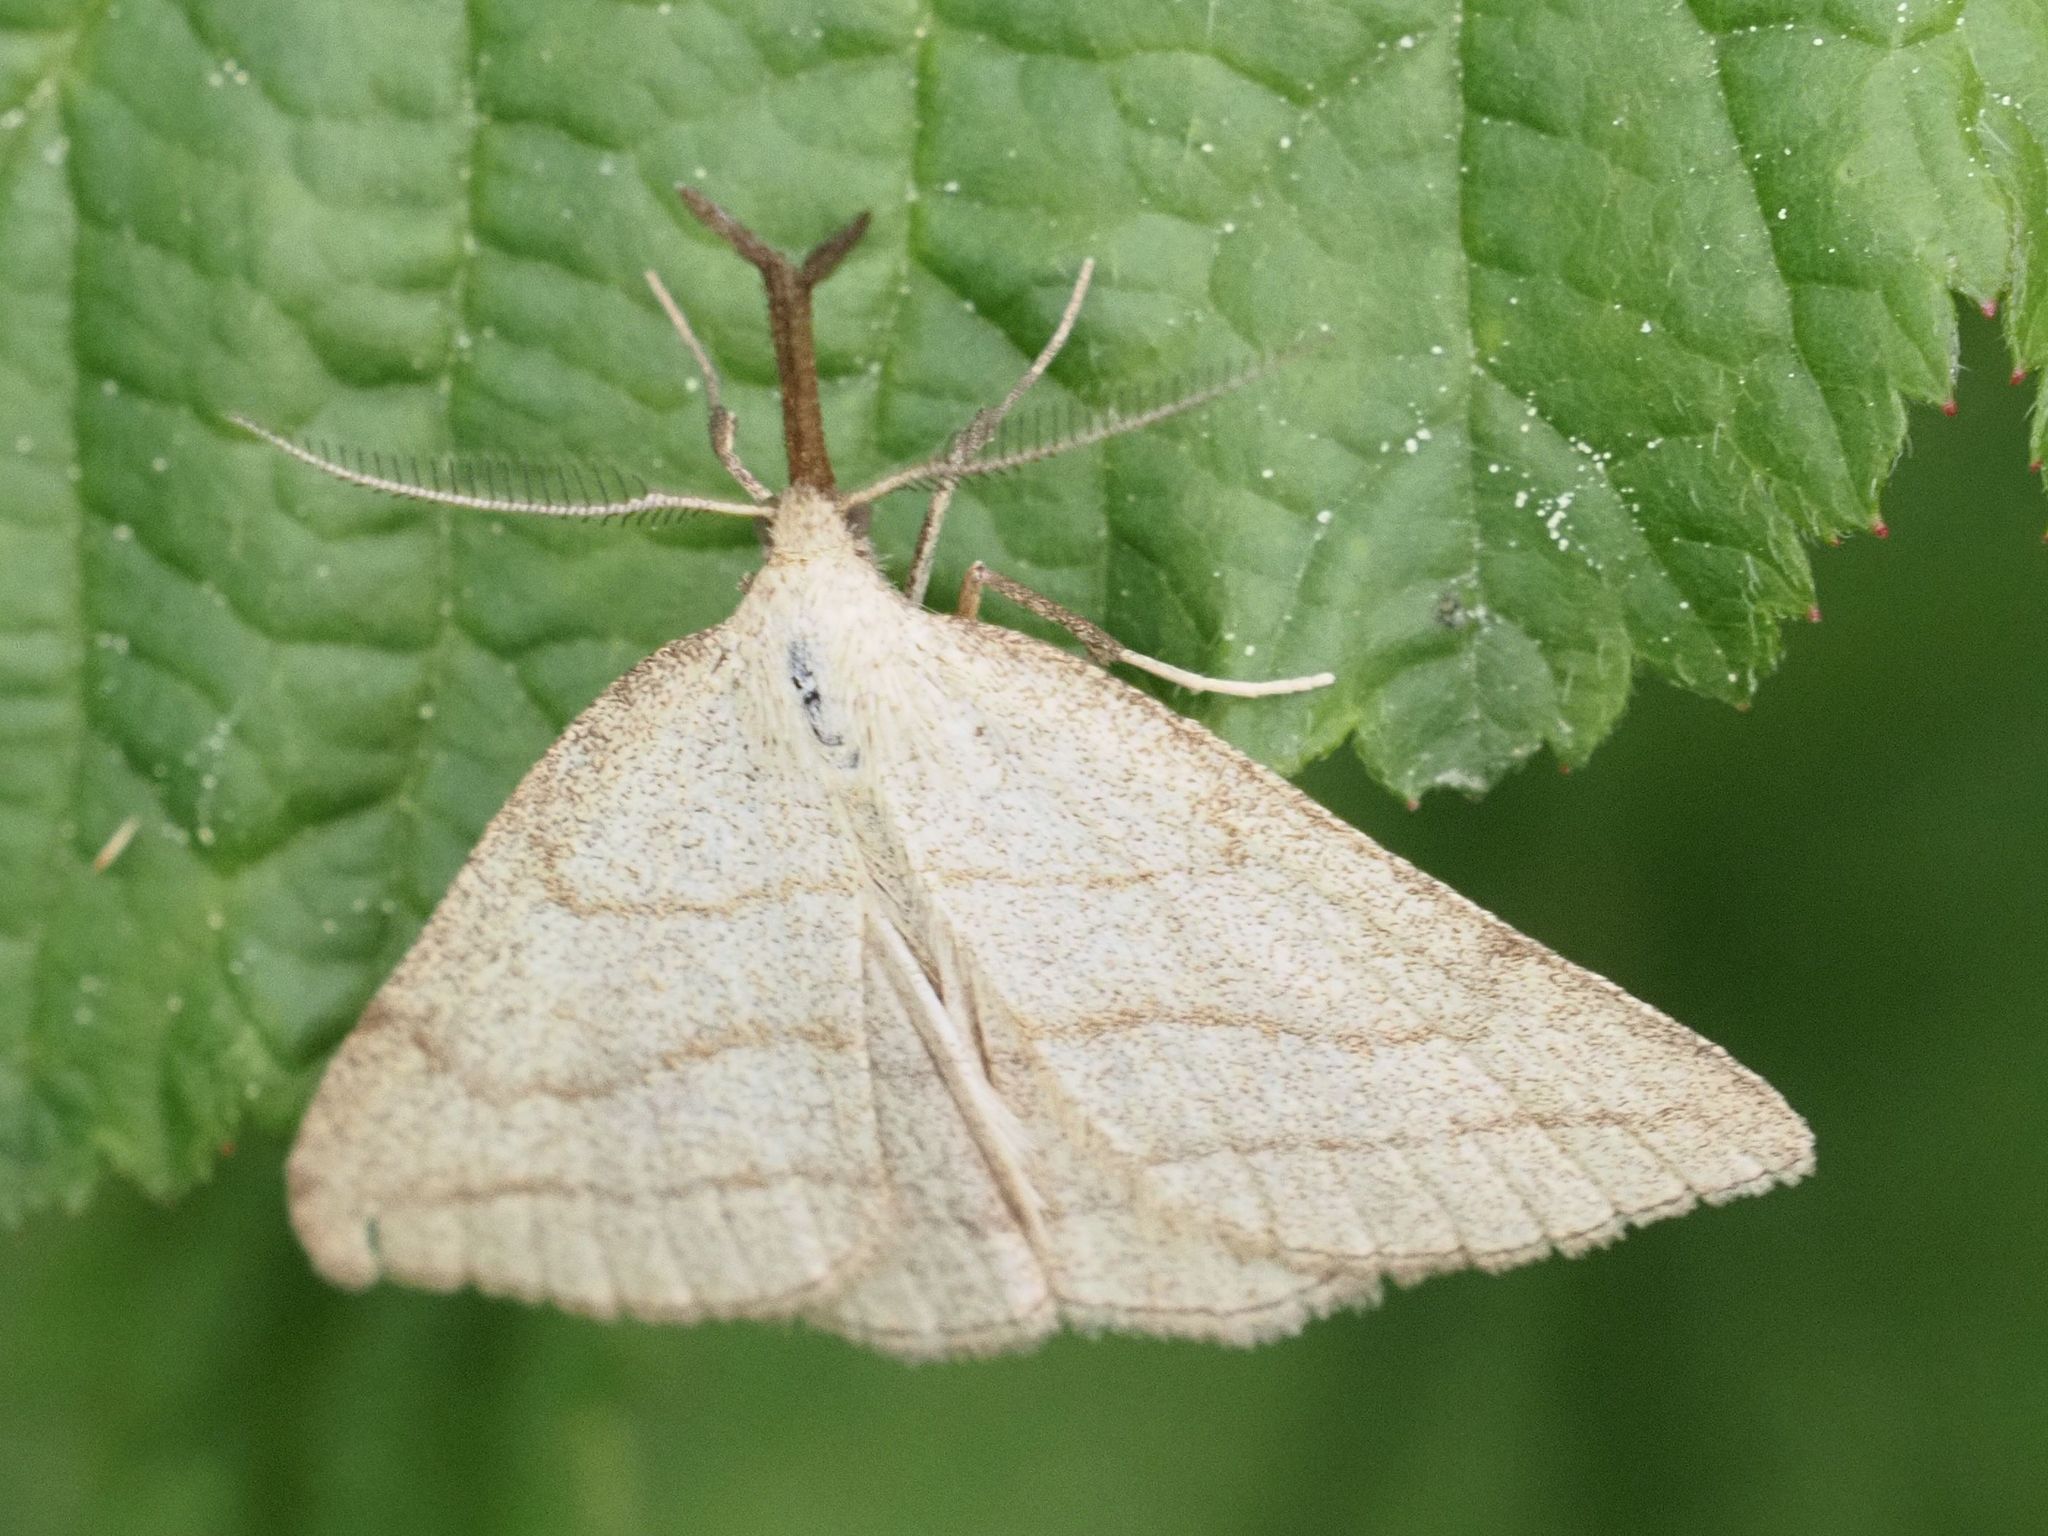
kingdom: Animalia
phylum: Arthropoda
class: Insecta
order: Lepidoptera
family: Erebidae
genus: Polypogon
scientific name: Polypogon tentacularia
